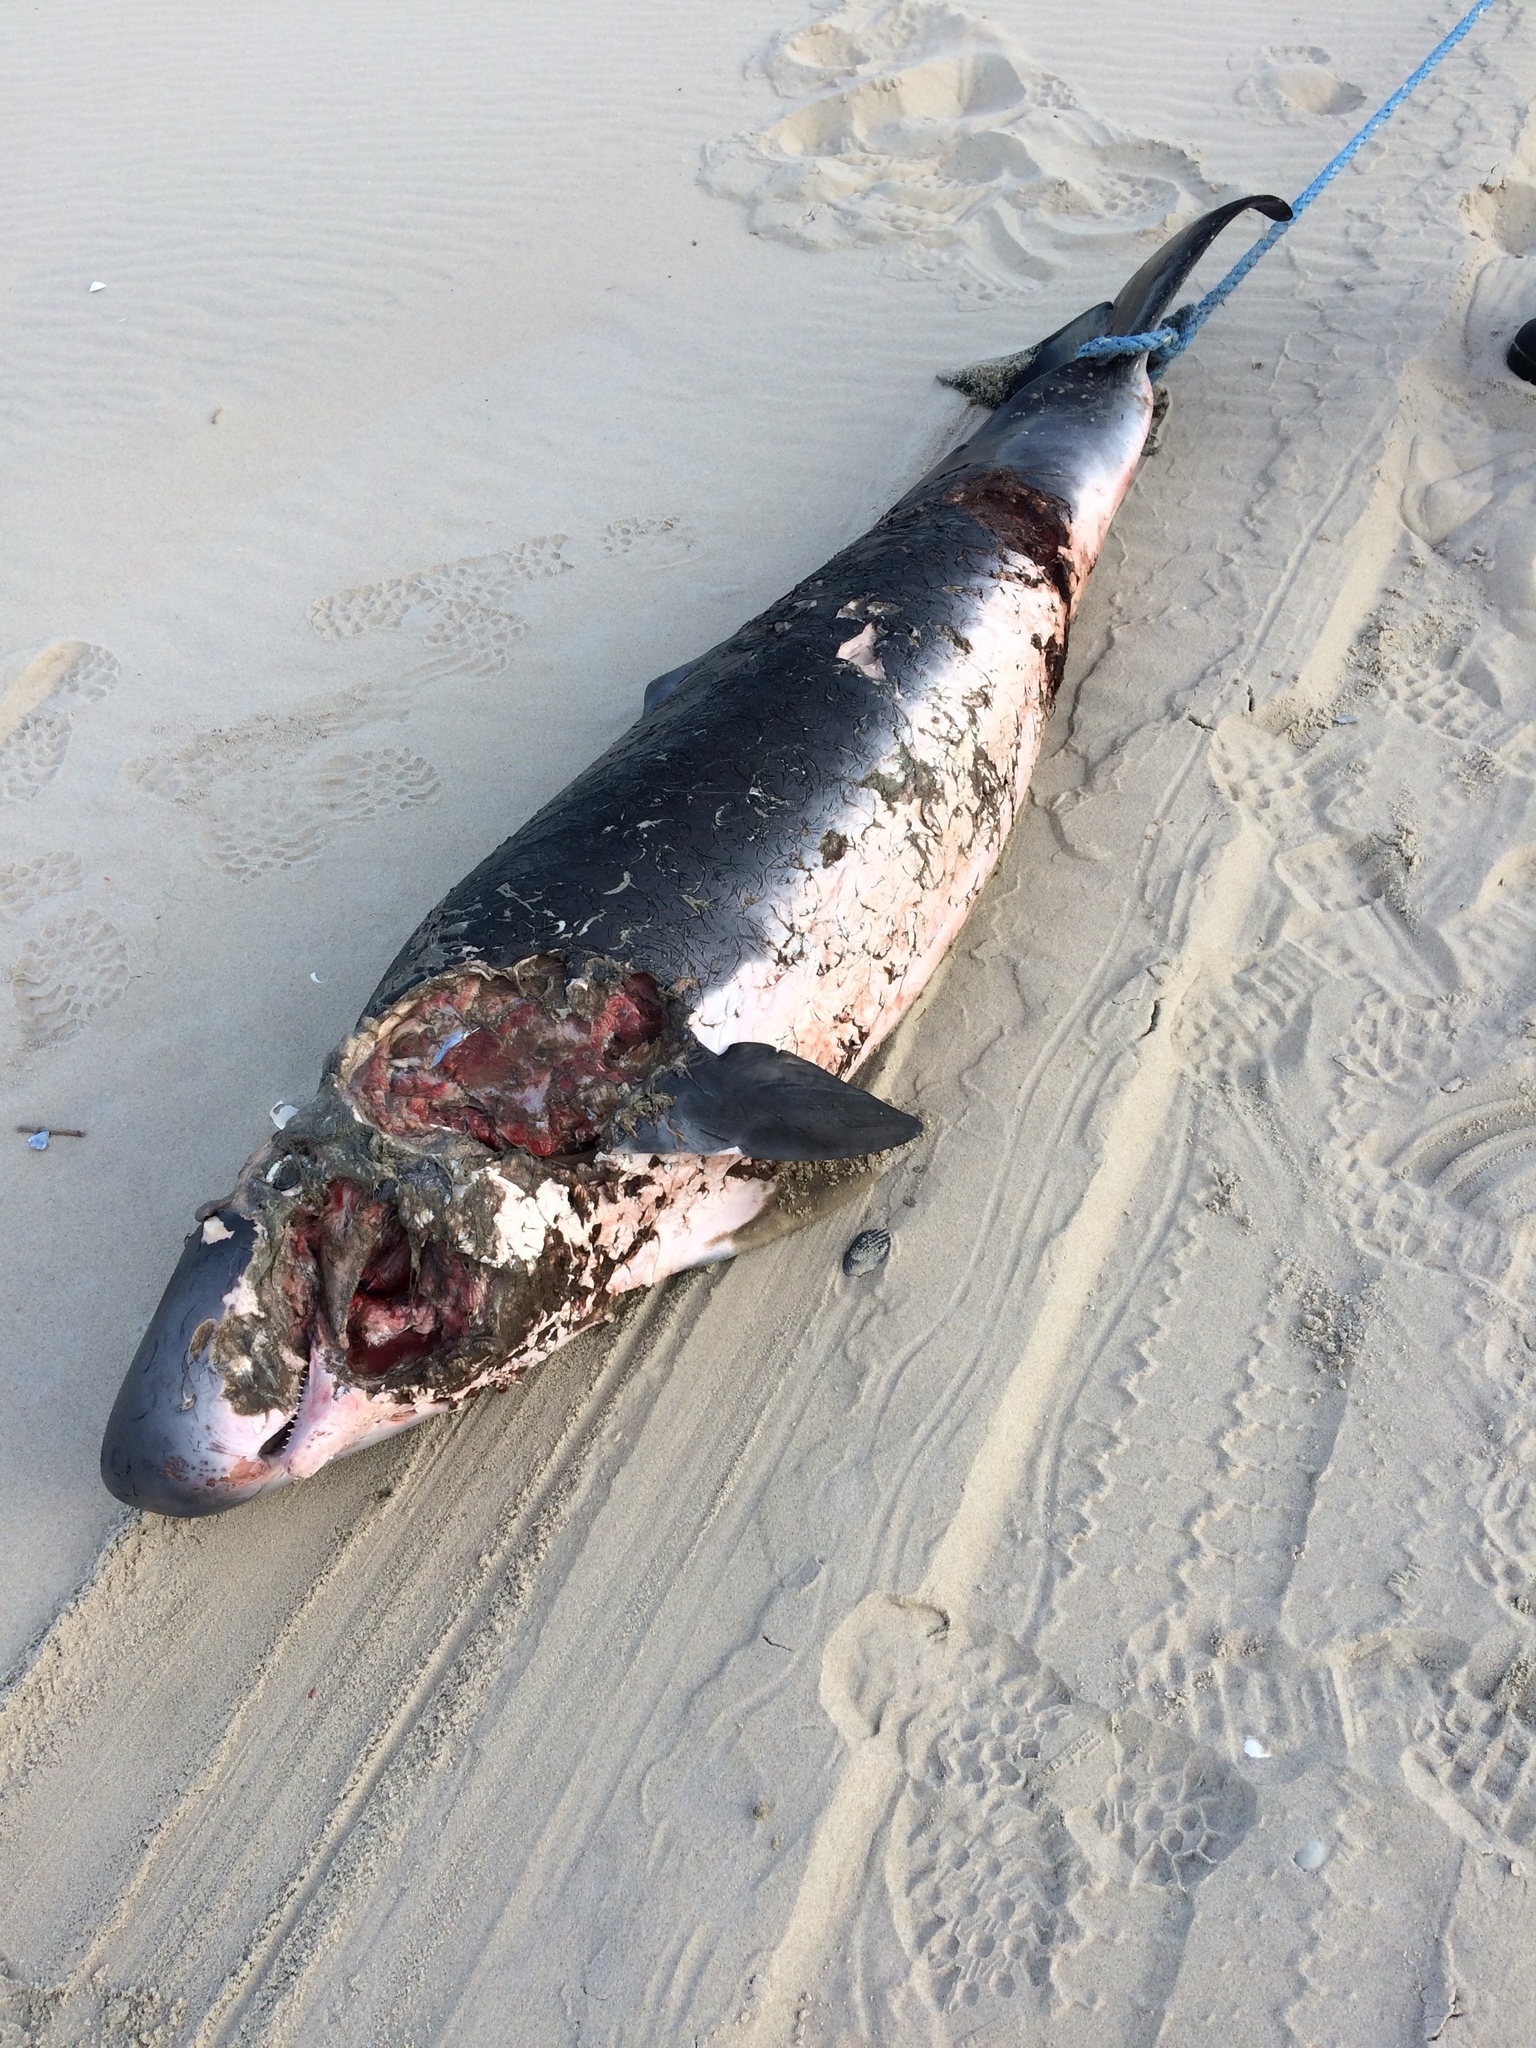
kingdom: Animalia
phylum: Chordata
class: Mammalia
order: Cetacea
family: Kogiidae
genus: Kogia
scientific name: Kogia breviceps
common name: Pygmy sperm whale
